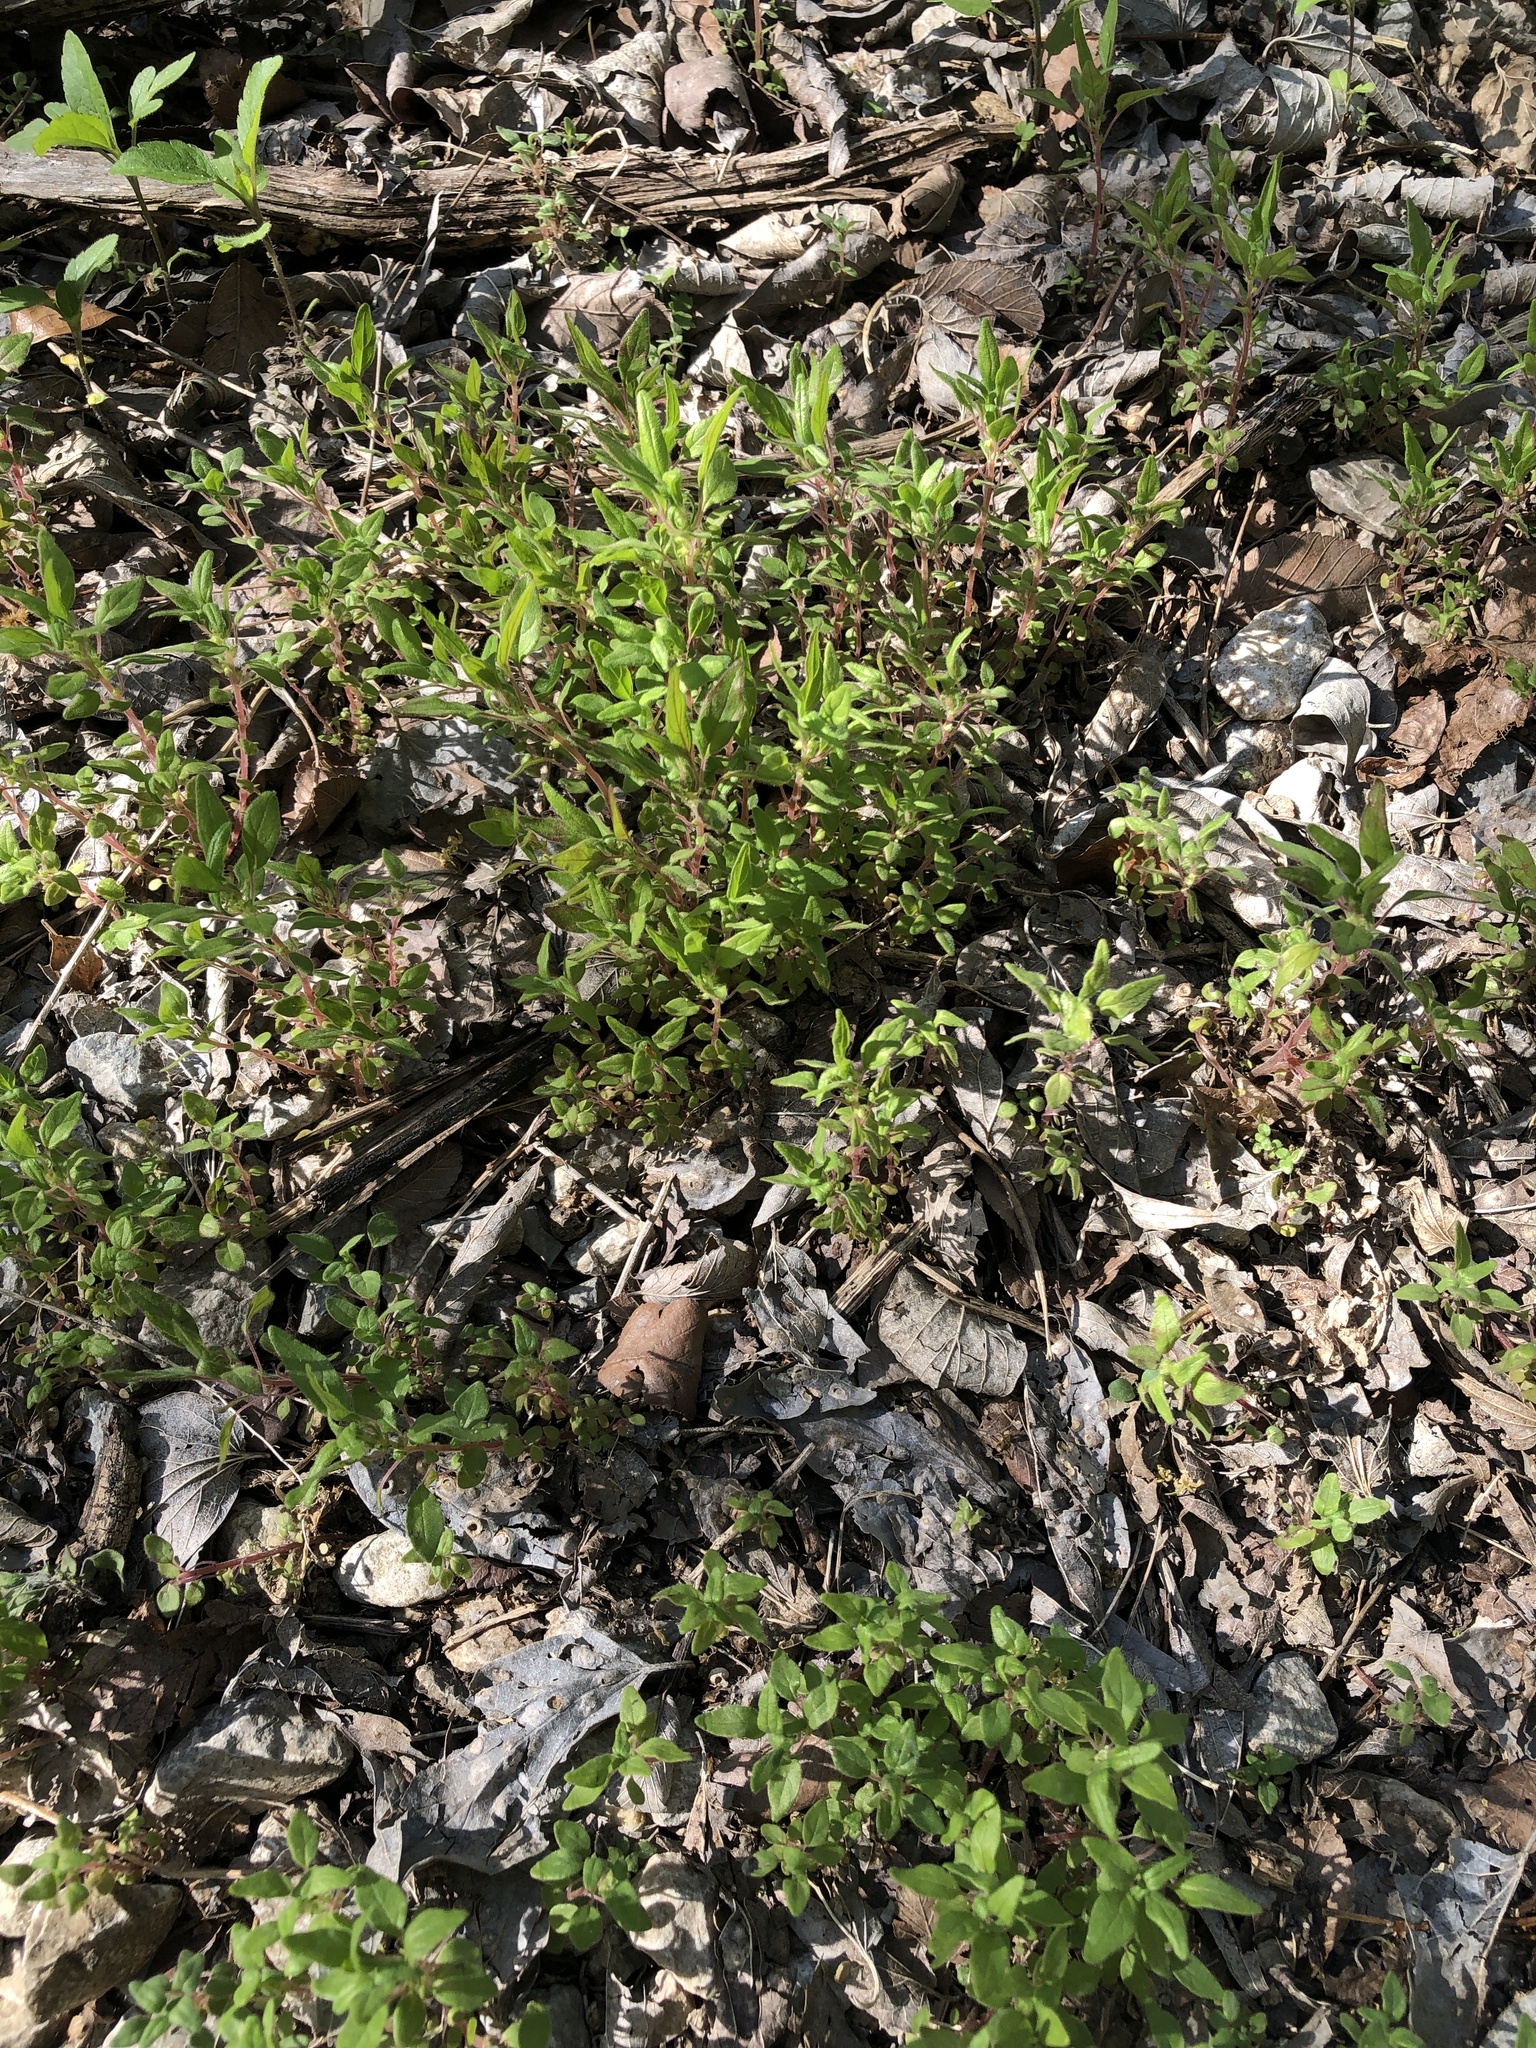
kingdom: Plantae
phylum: Tracheophyta
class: Magnoliopsida
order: Rosales
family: Urticaceae
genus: Parietaria
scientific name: Parietaria pensylvanica
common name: Pennsylvania pellitory
